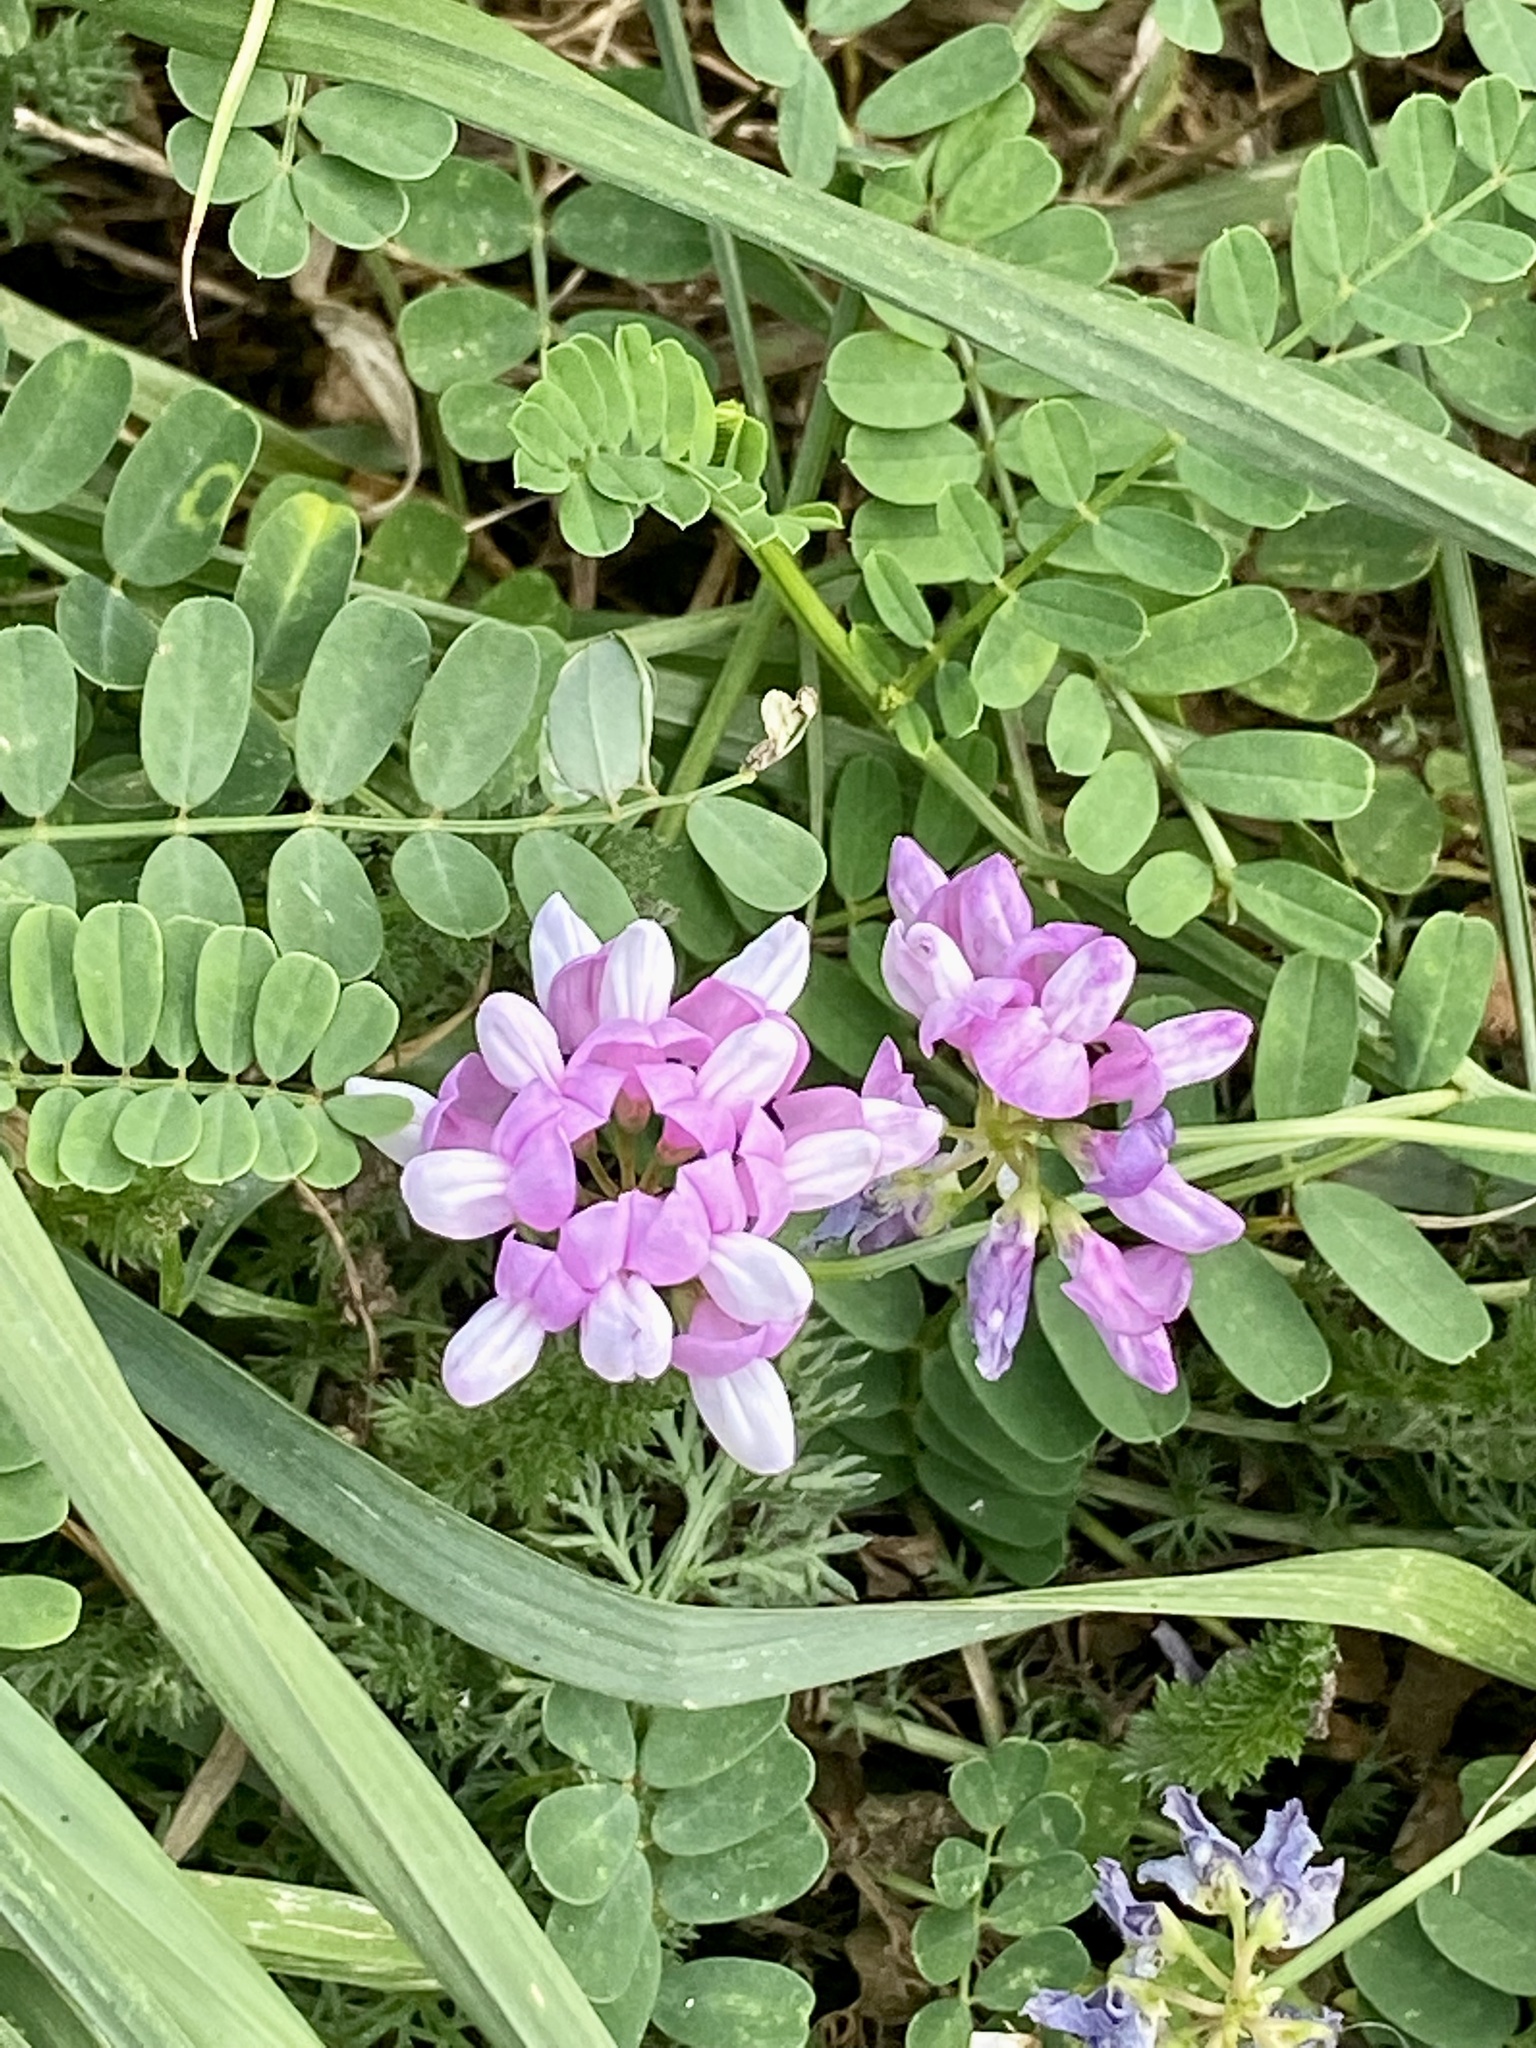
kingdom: Plantae
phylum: Tracheophyta
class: Magnoliopsida
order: Fabales
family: Fabaceae
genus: Coronilla
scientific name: Coronilla varia
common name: Crownvetch
